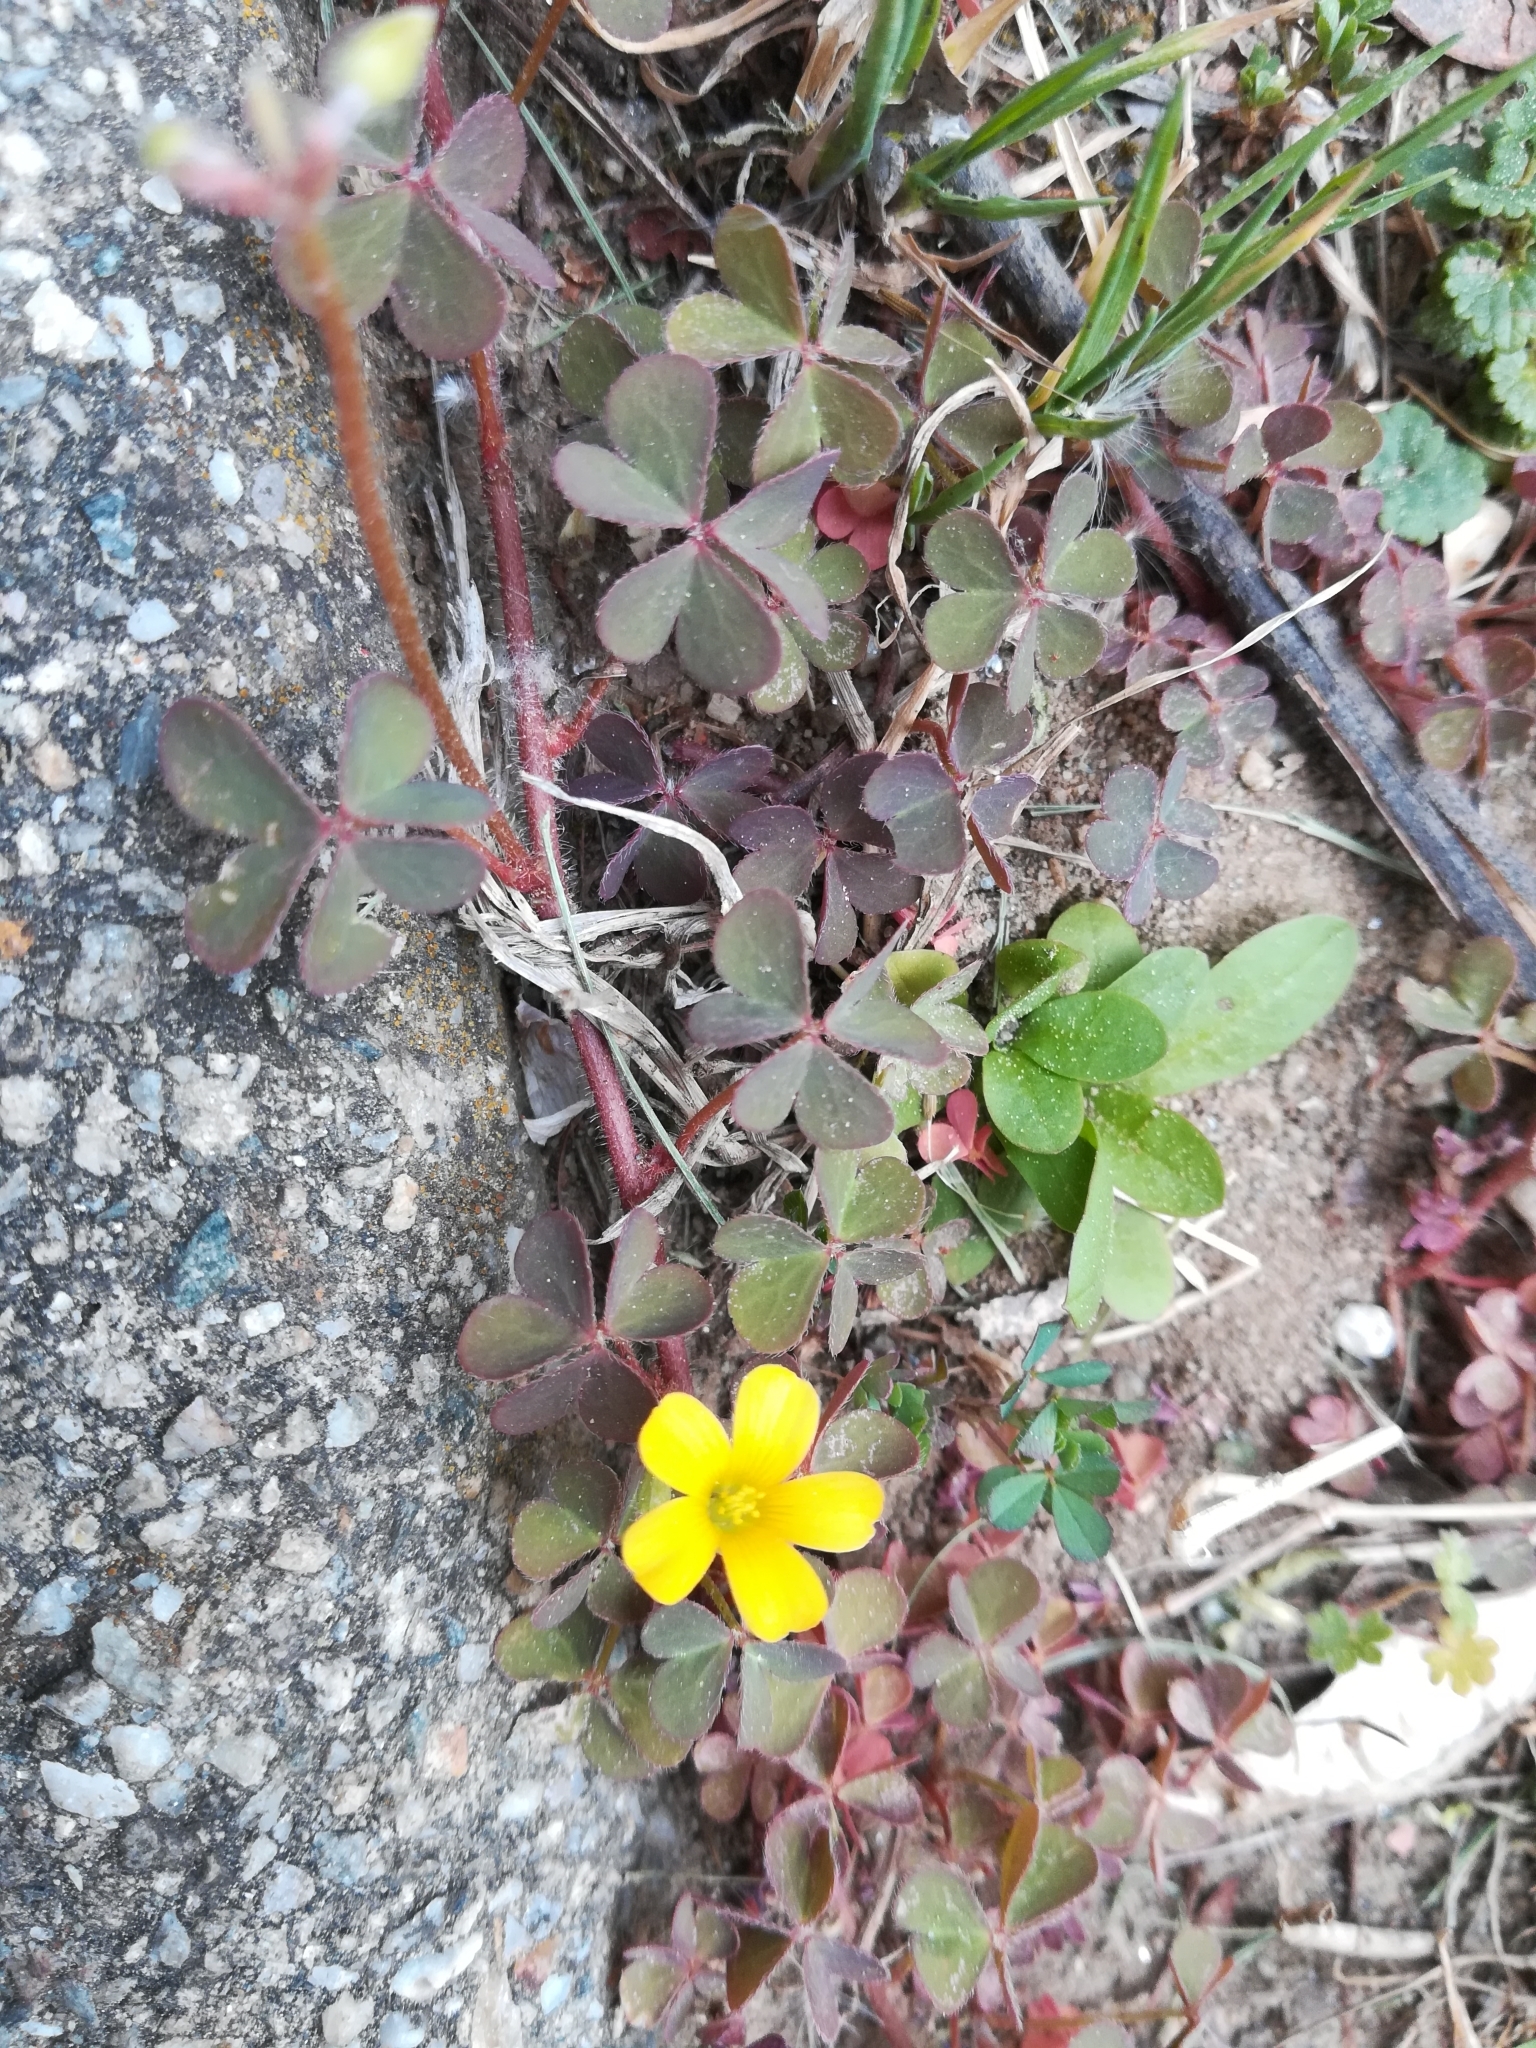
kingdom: Plantae
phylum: Tracheophyta
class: Magnoliopsida
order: Oxalidales
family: Oxalidaceae
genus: Oxalis
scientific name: Oxalis corniculata
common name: Procumbent yellow-sorrel
